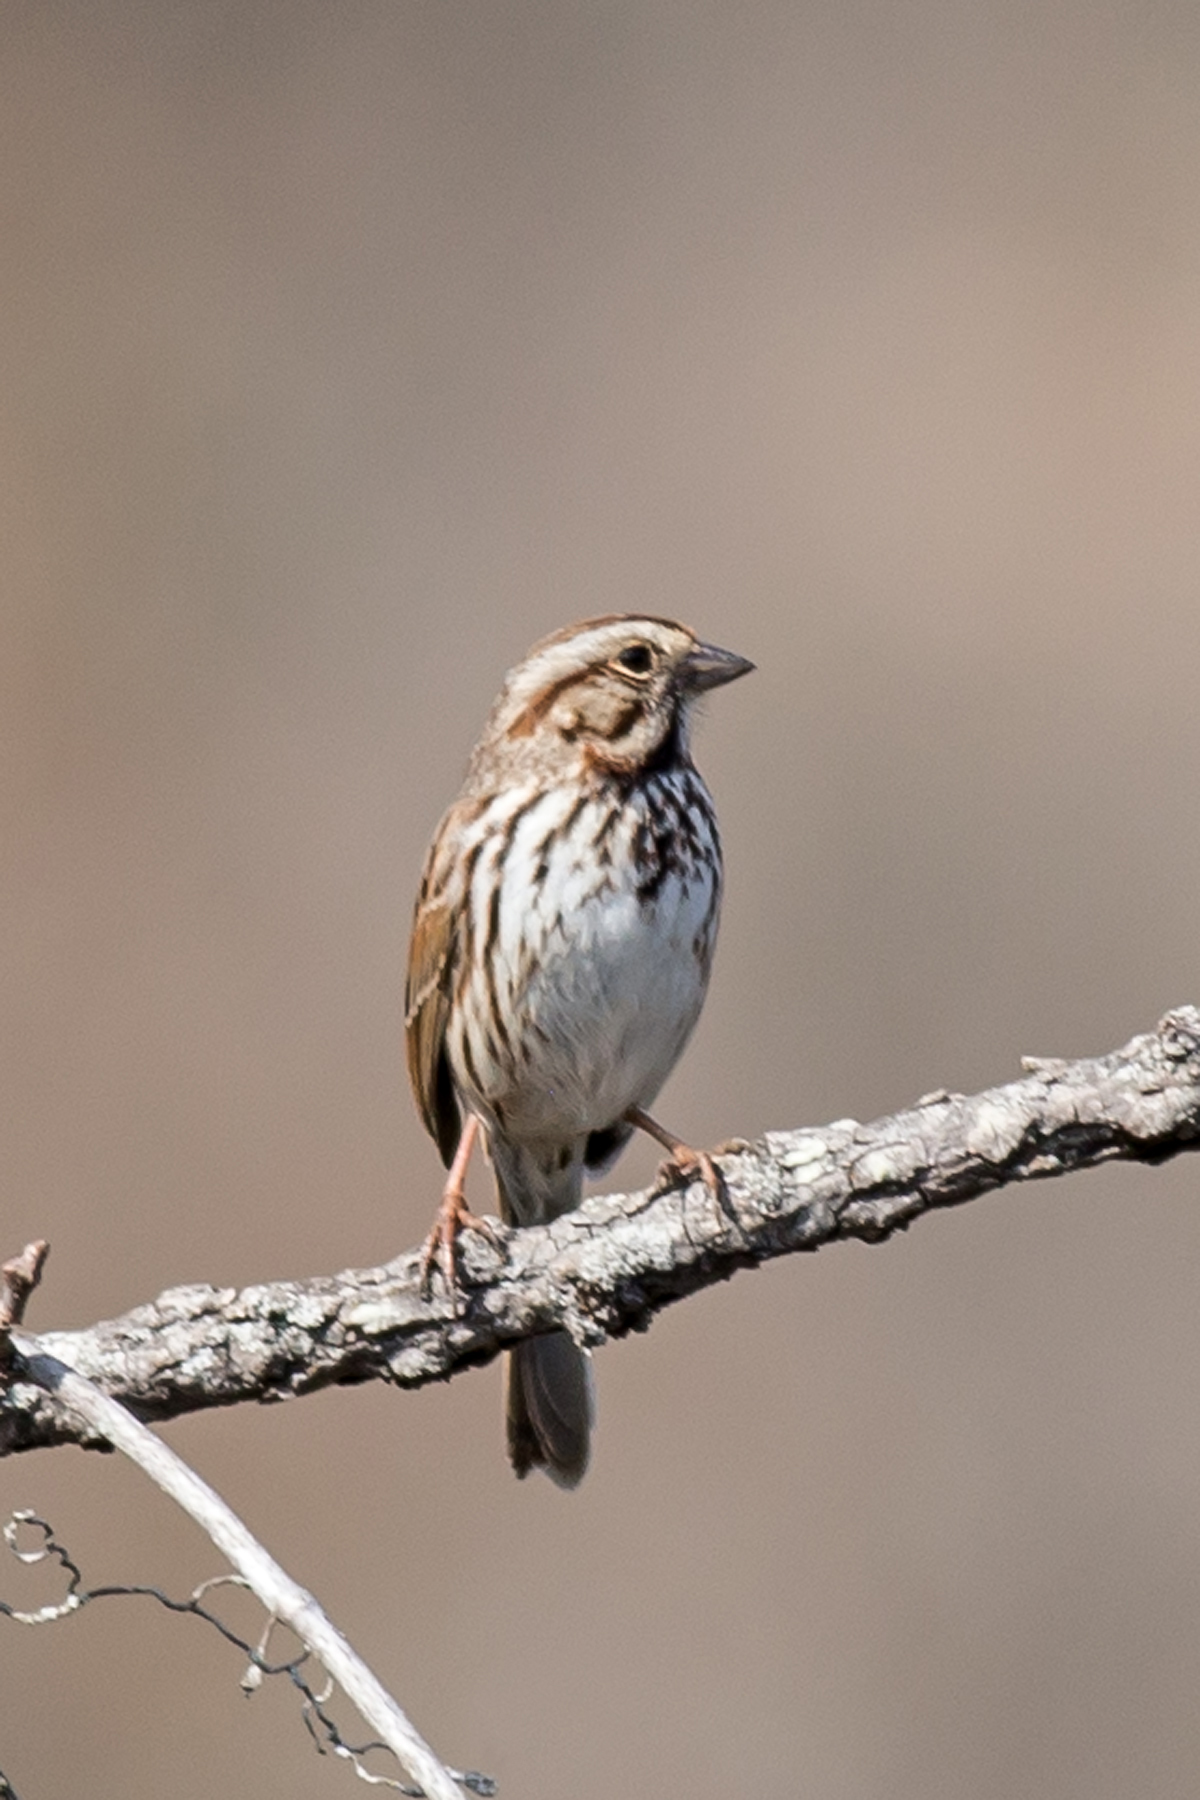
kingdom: Animalia
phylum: Chordata
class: Aves
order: Passeriformes
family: Passerellidae
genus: Melospiza
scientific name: Melospiza melodia
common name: Song sparrow
